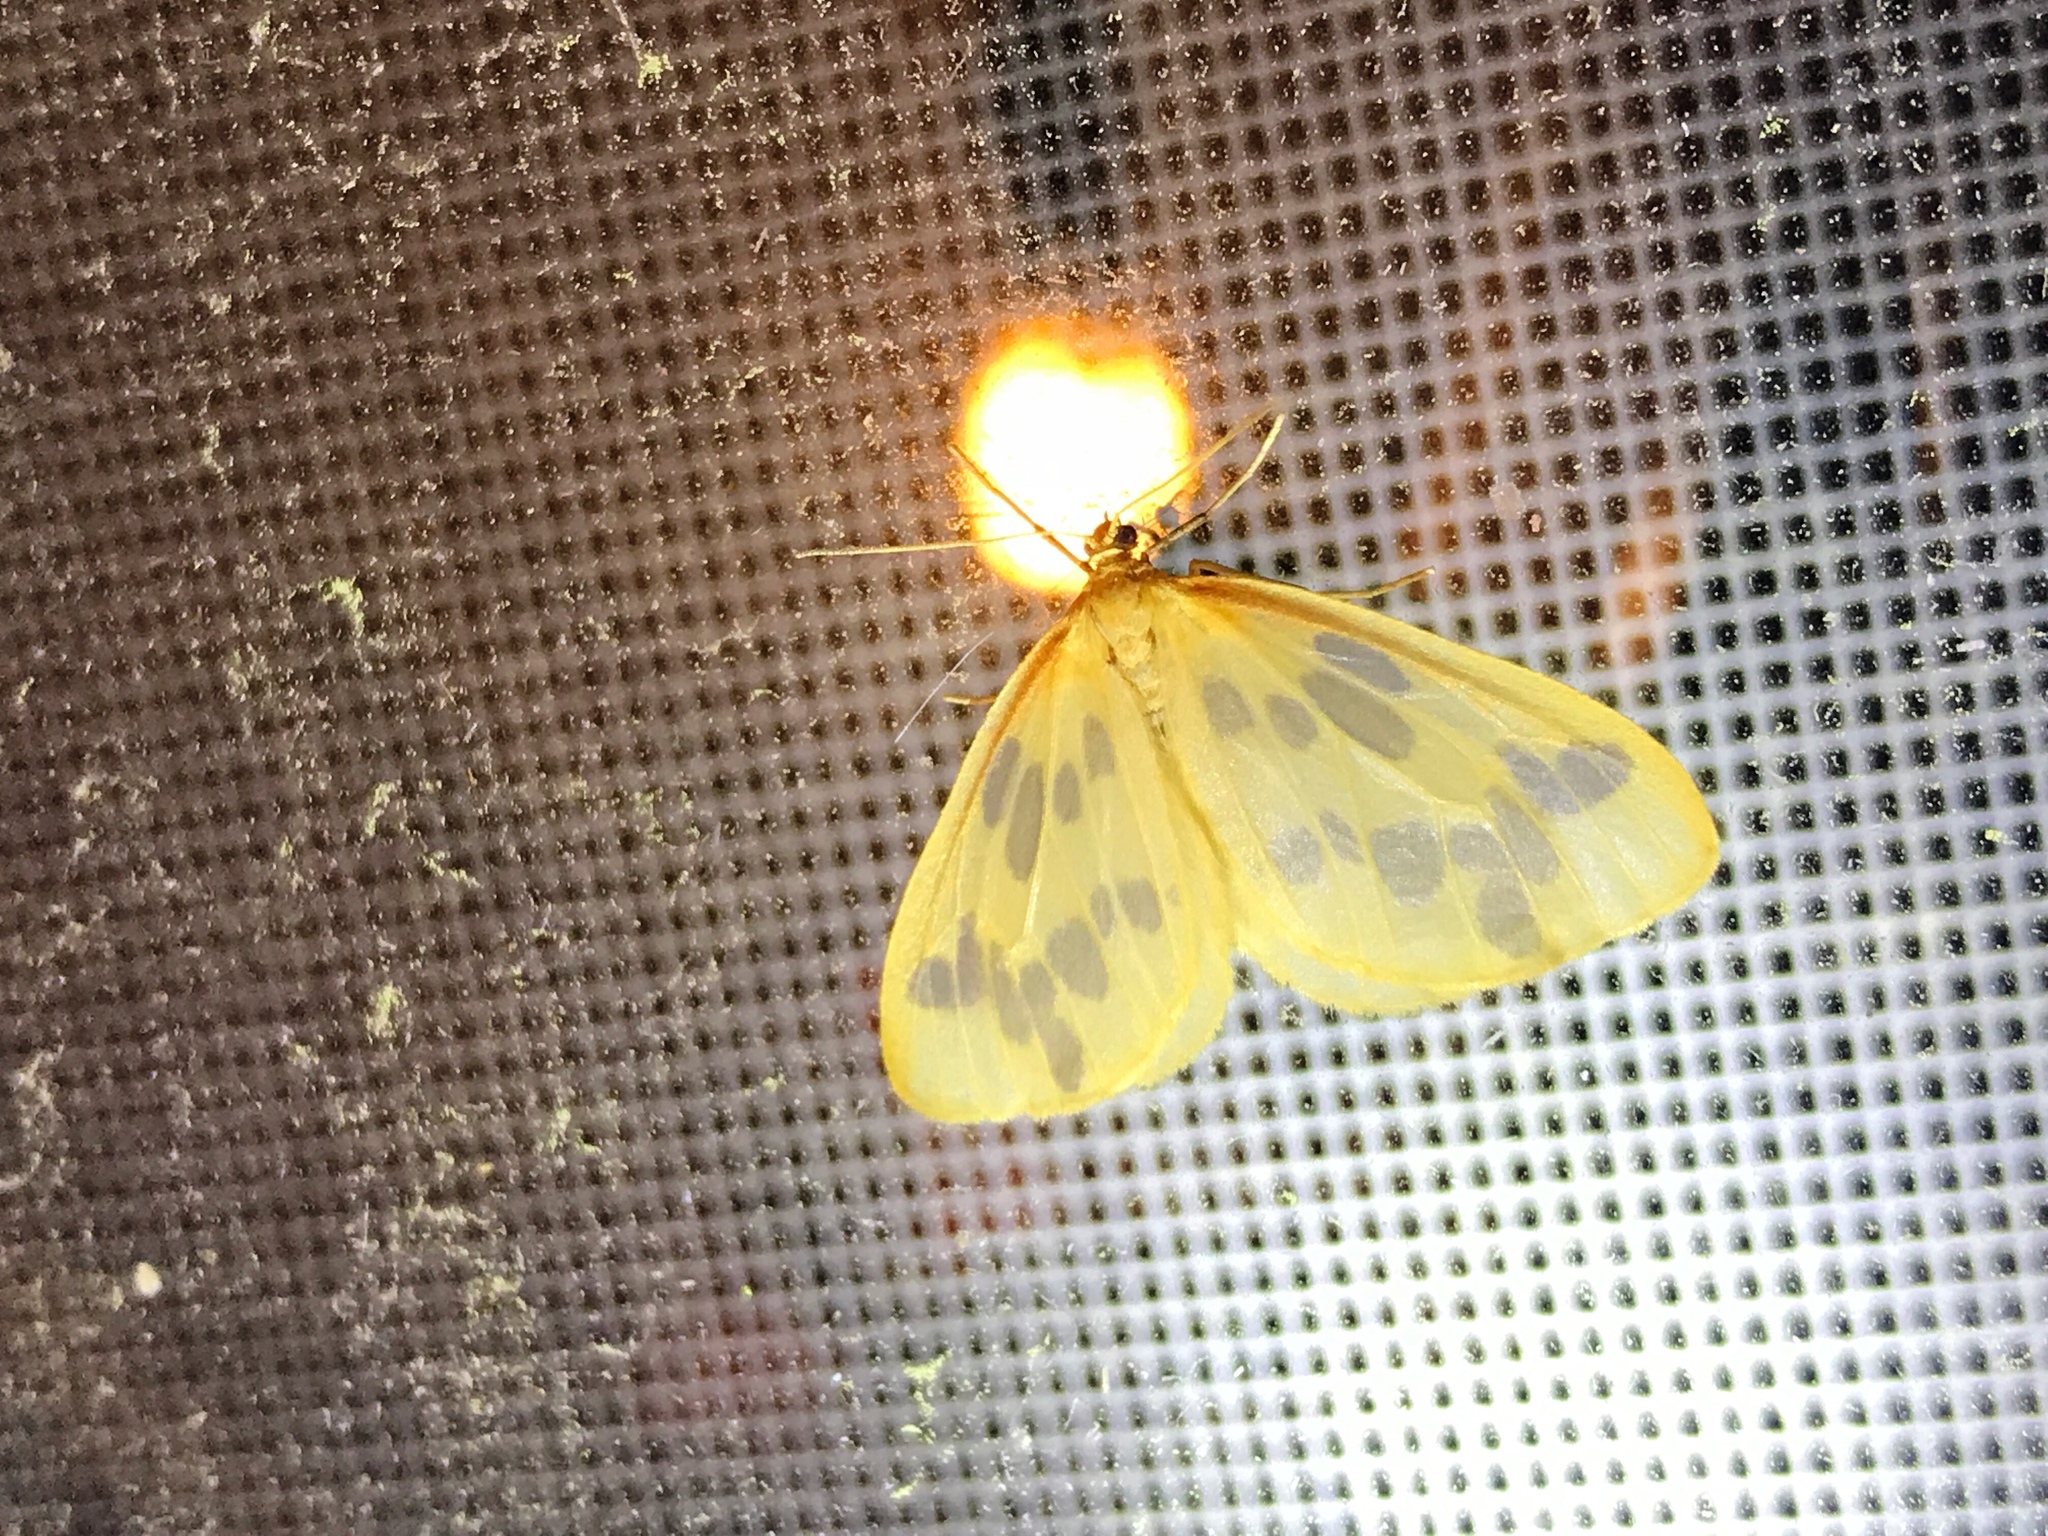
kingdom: Animalia
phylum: Arthropoda
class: Insecta
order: Lepidoptera
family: Geometridae
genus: Eubaphe
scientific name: Eubaphe mendica
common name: Beggar
